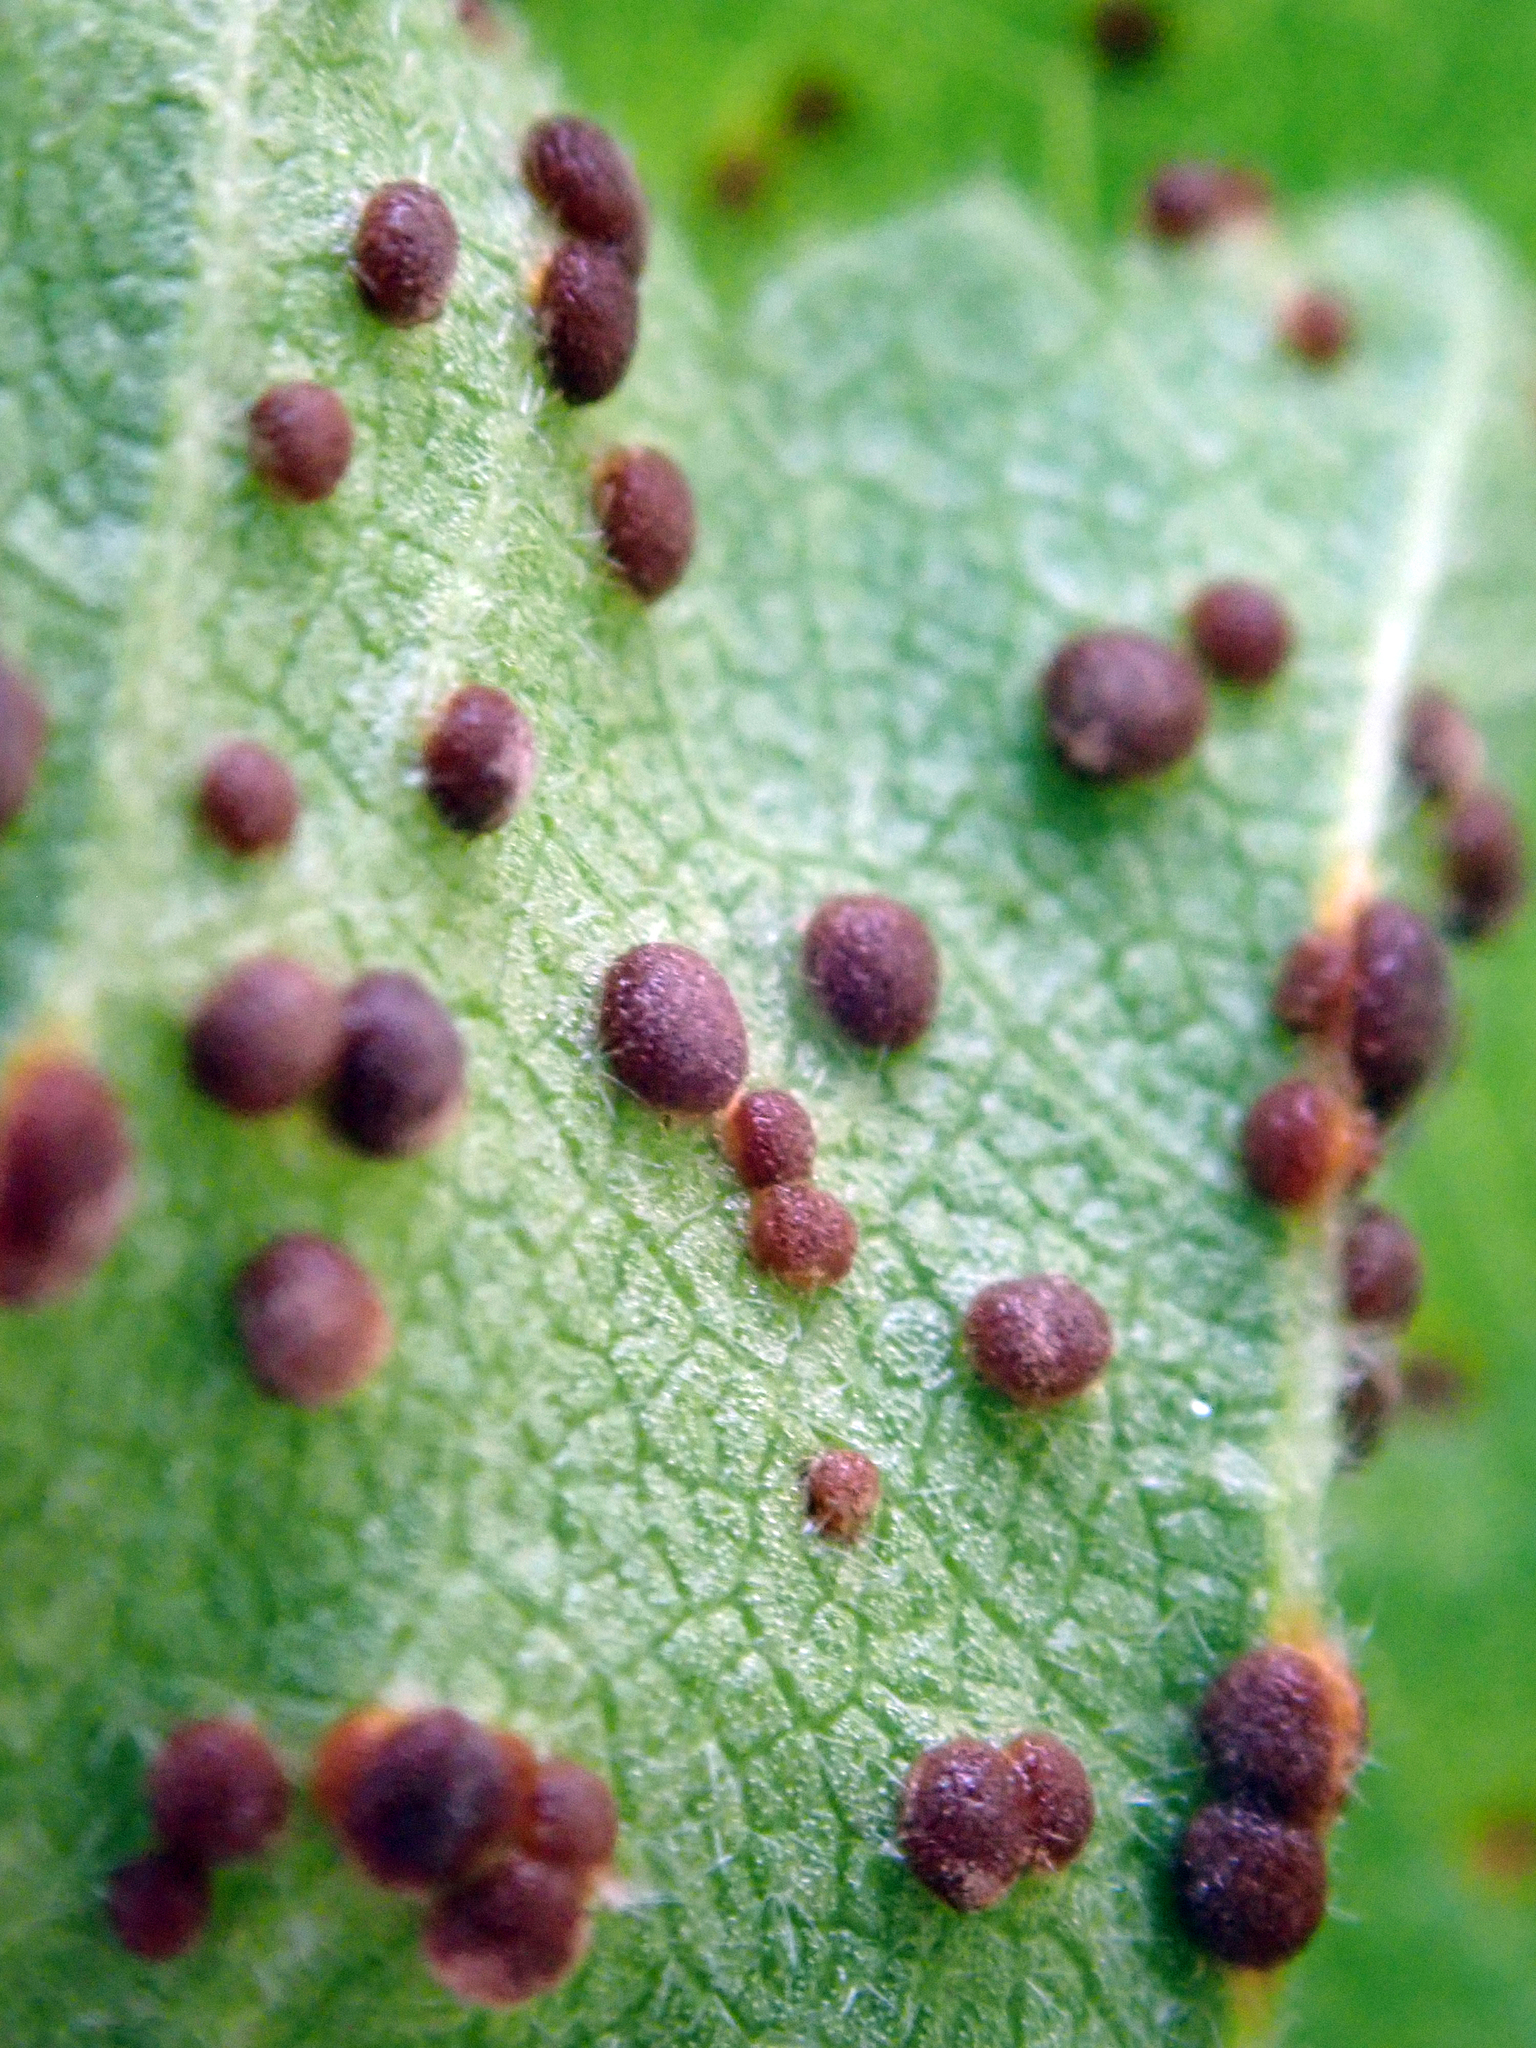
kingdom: Fungi
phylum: Basidiomycota
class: Pucciniomycetes
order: Pucciniales
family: Pucciniaceae
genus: Puccinia
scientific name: Puccinia malvacearum
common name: Hollyhock rust
